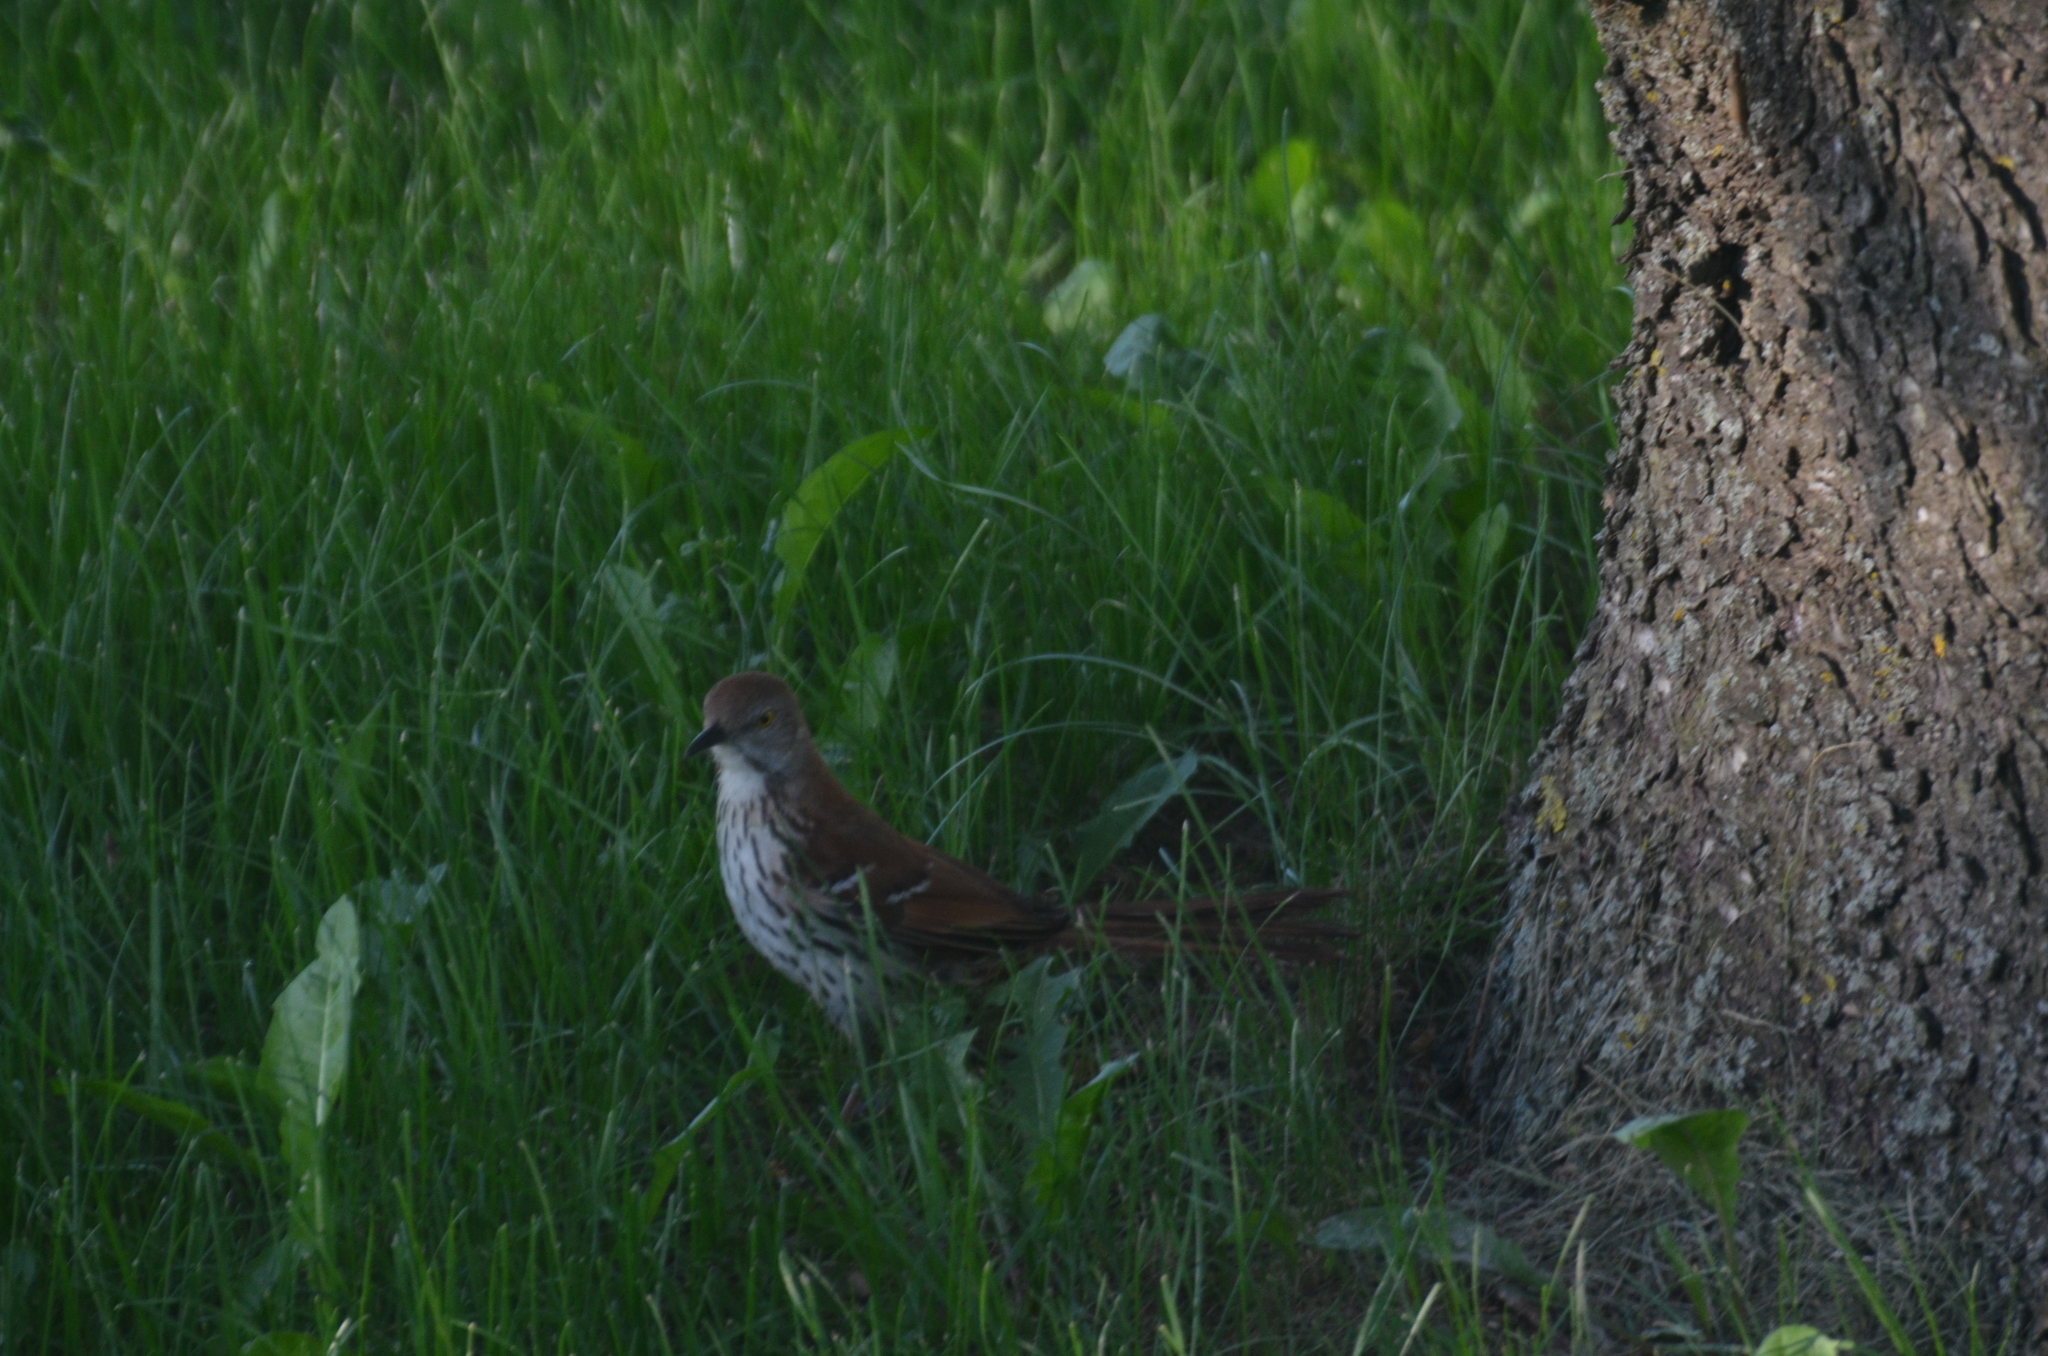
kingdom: Animalia
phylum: Chordata
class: Aves
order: Passeriformes
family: Mimidae
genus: Toxostoma
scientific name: Toxostoma rufum
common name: Brown thrasher
